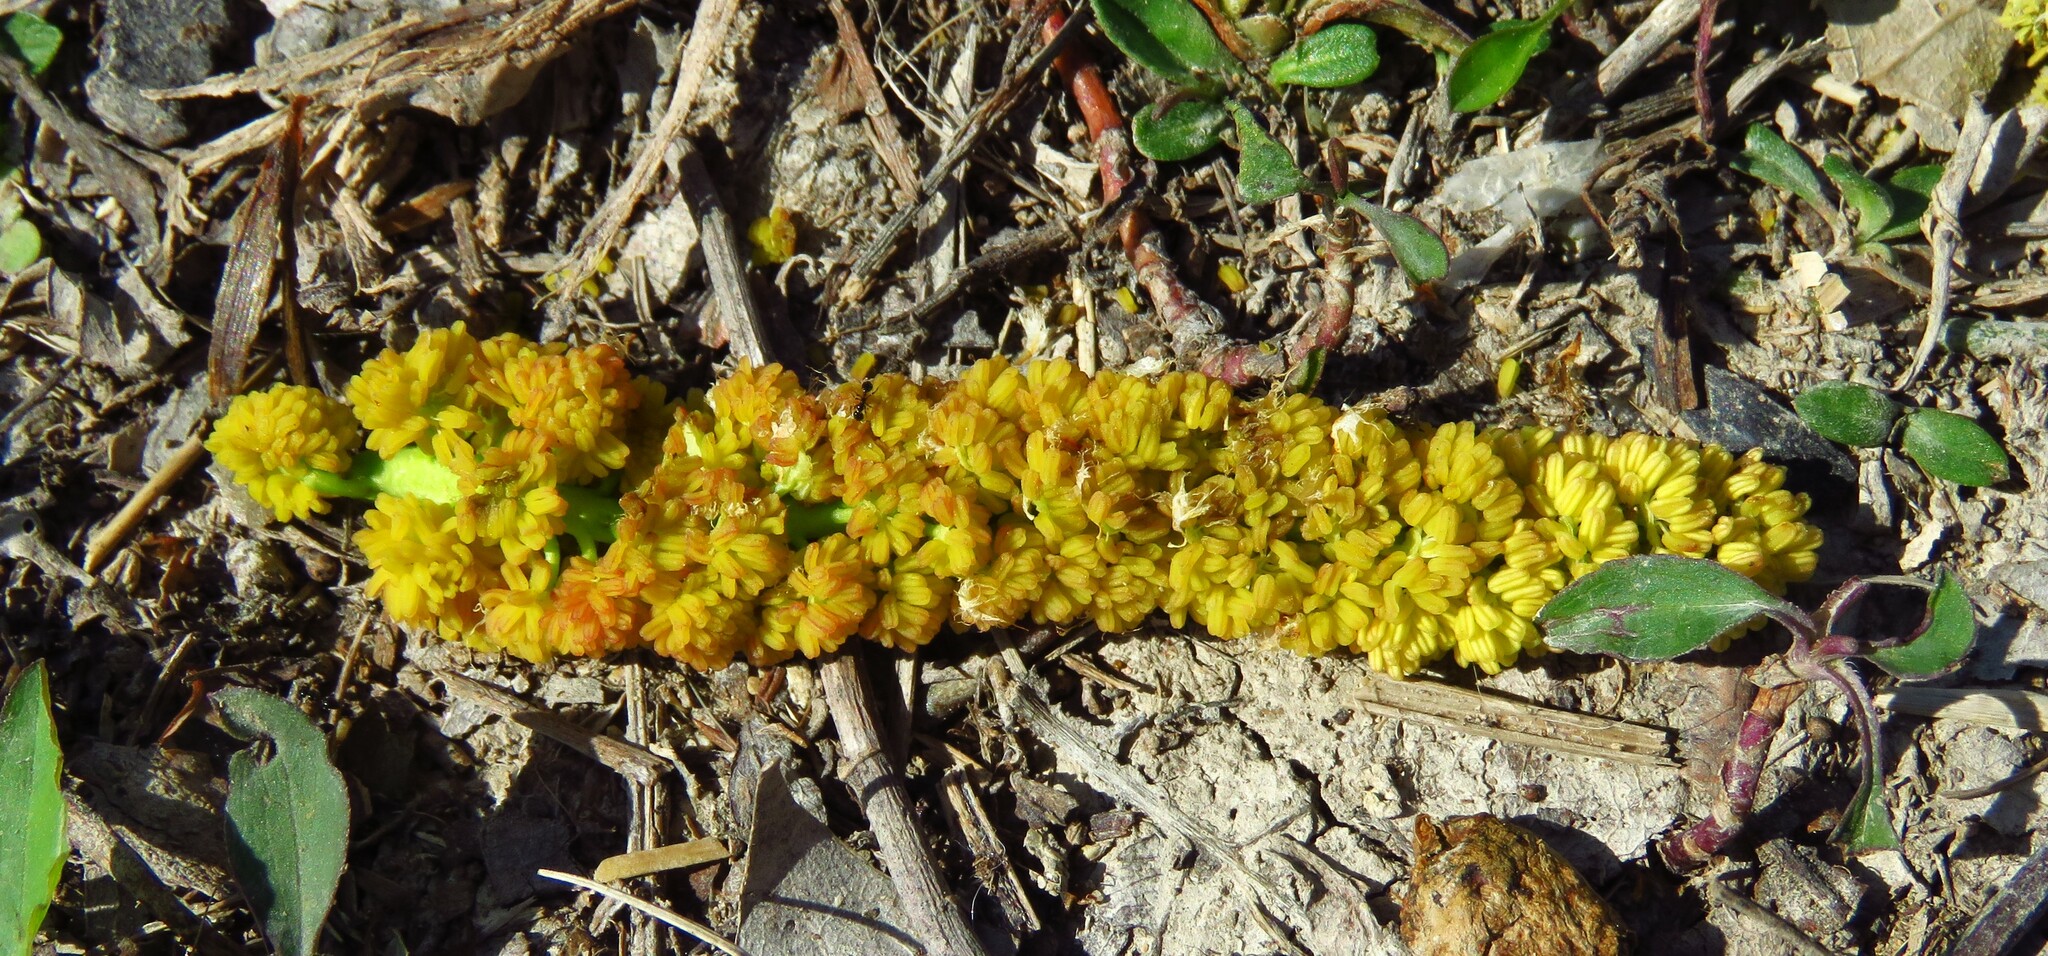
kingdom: Plantae
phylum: Tracheophyta
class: Magnoliopsida
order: Malpighiales
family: Salicaceae
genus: Populus
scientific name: Populus deltoides
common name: Eastern cottonwood
